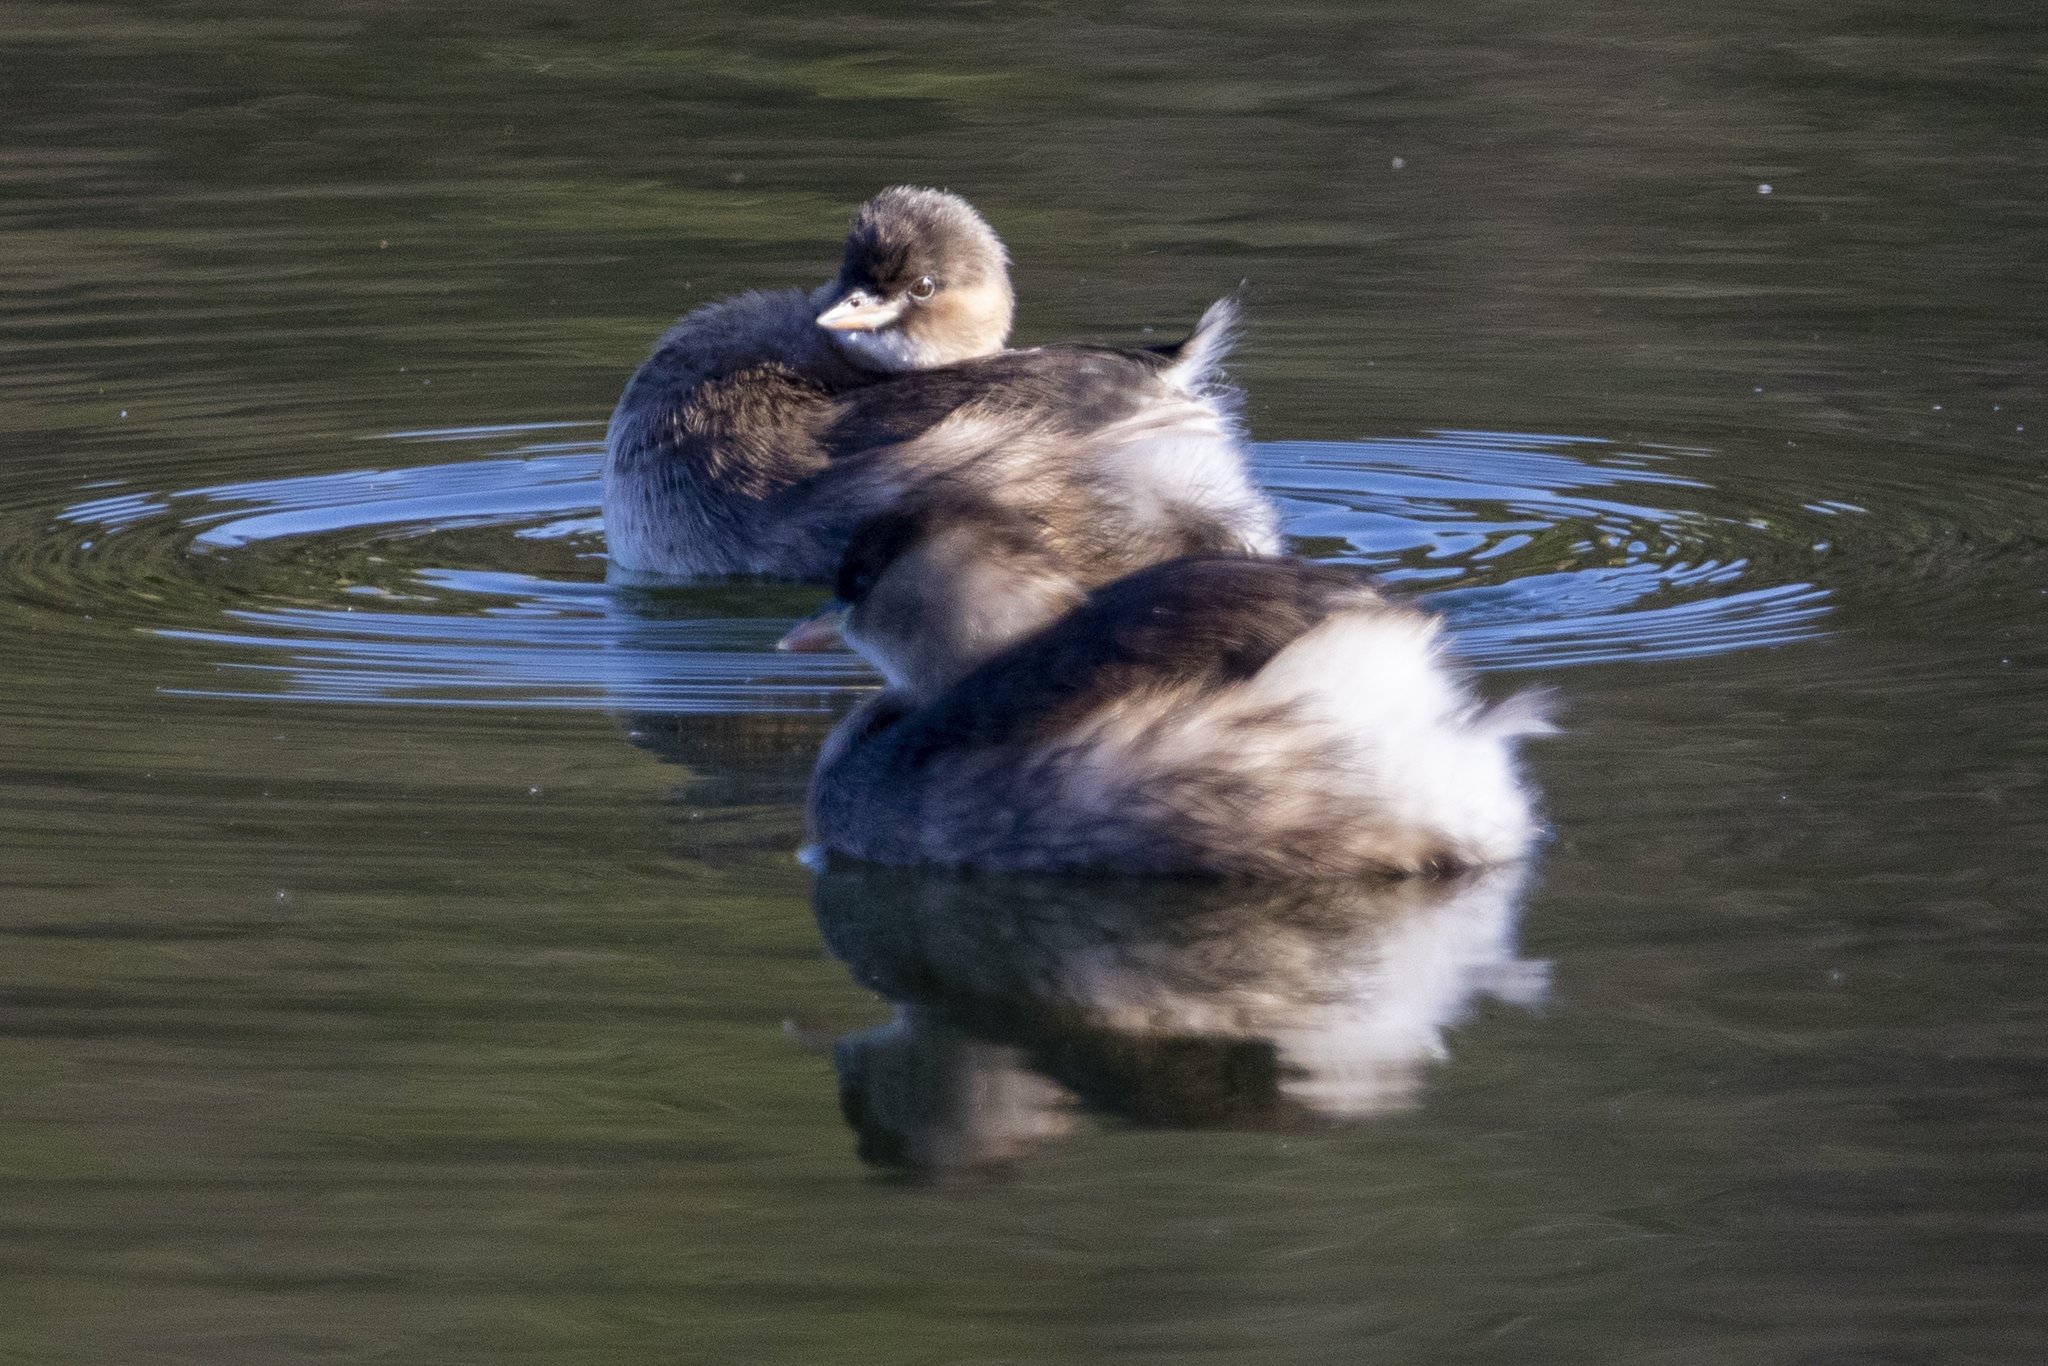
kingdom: Animalia
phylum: Chordata
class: Aves
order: Podicipediformes
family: Podicipedidae
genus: Tachybaptus
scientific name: Tachybaptus ruficollis
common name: Little grebe
